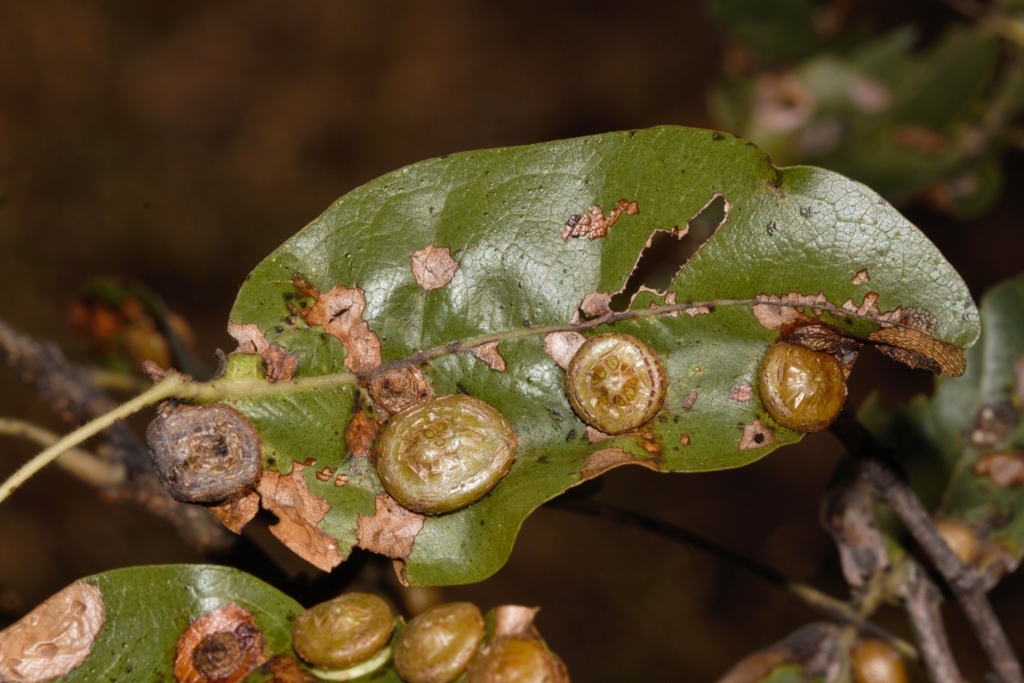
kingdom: Plantae
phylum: Tracheophyta
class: Magnoliopsida
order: Fabales
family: Fabaceae
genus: Brachystegia
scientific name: Brachystegia spiciformis
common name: Zebrawood
